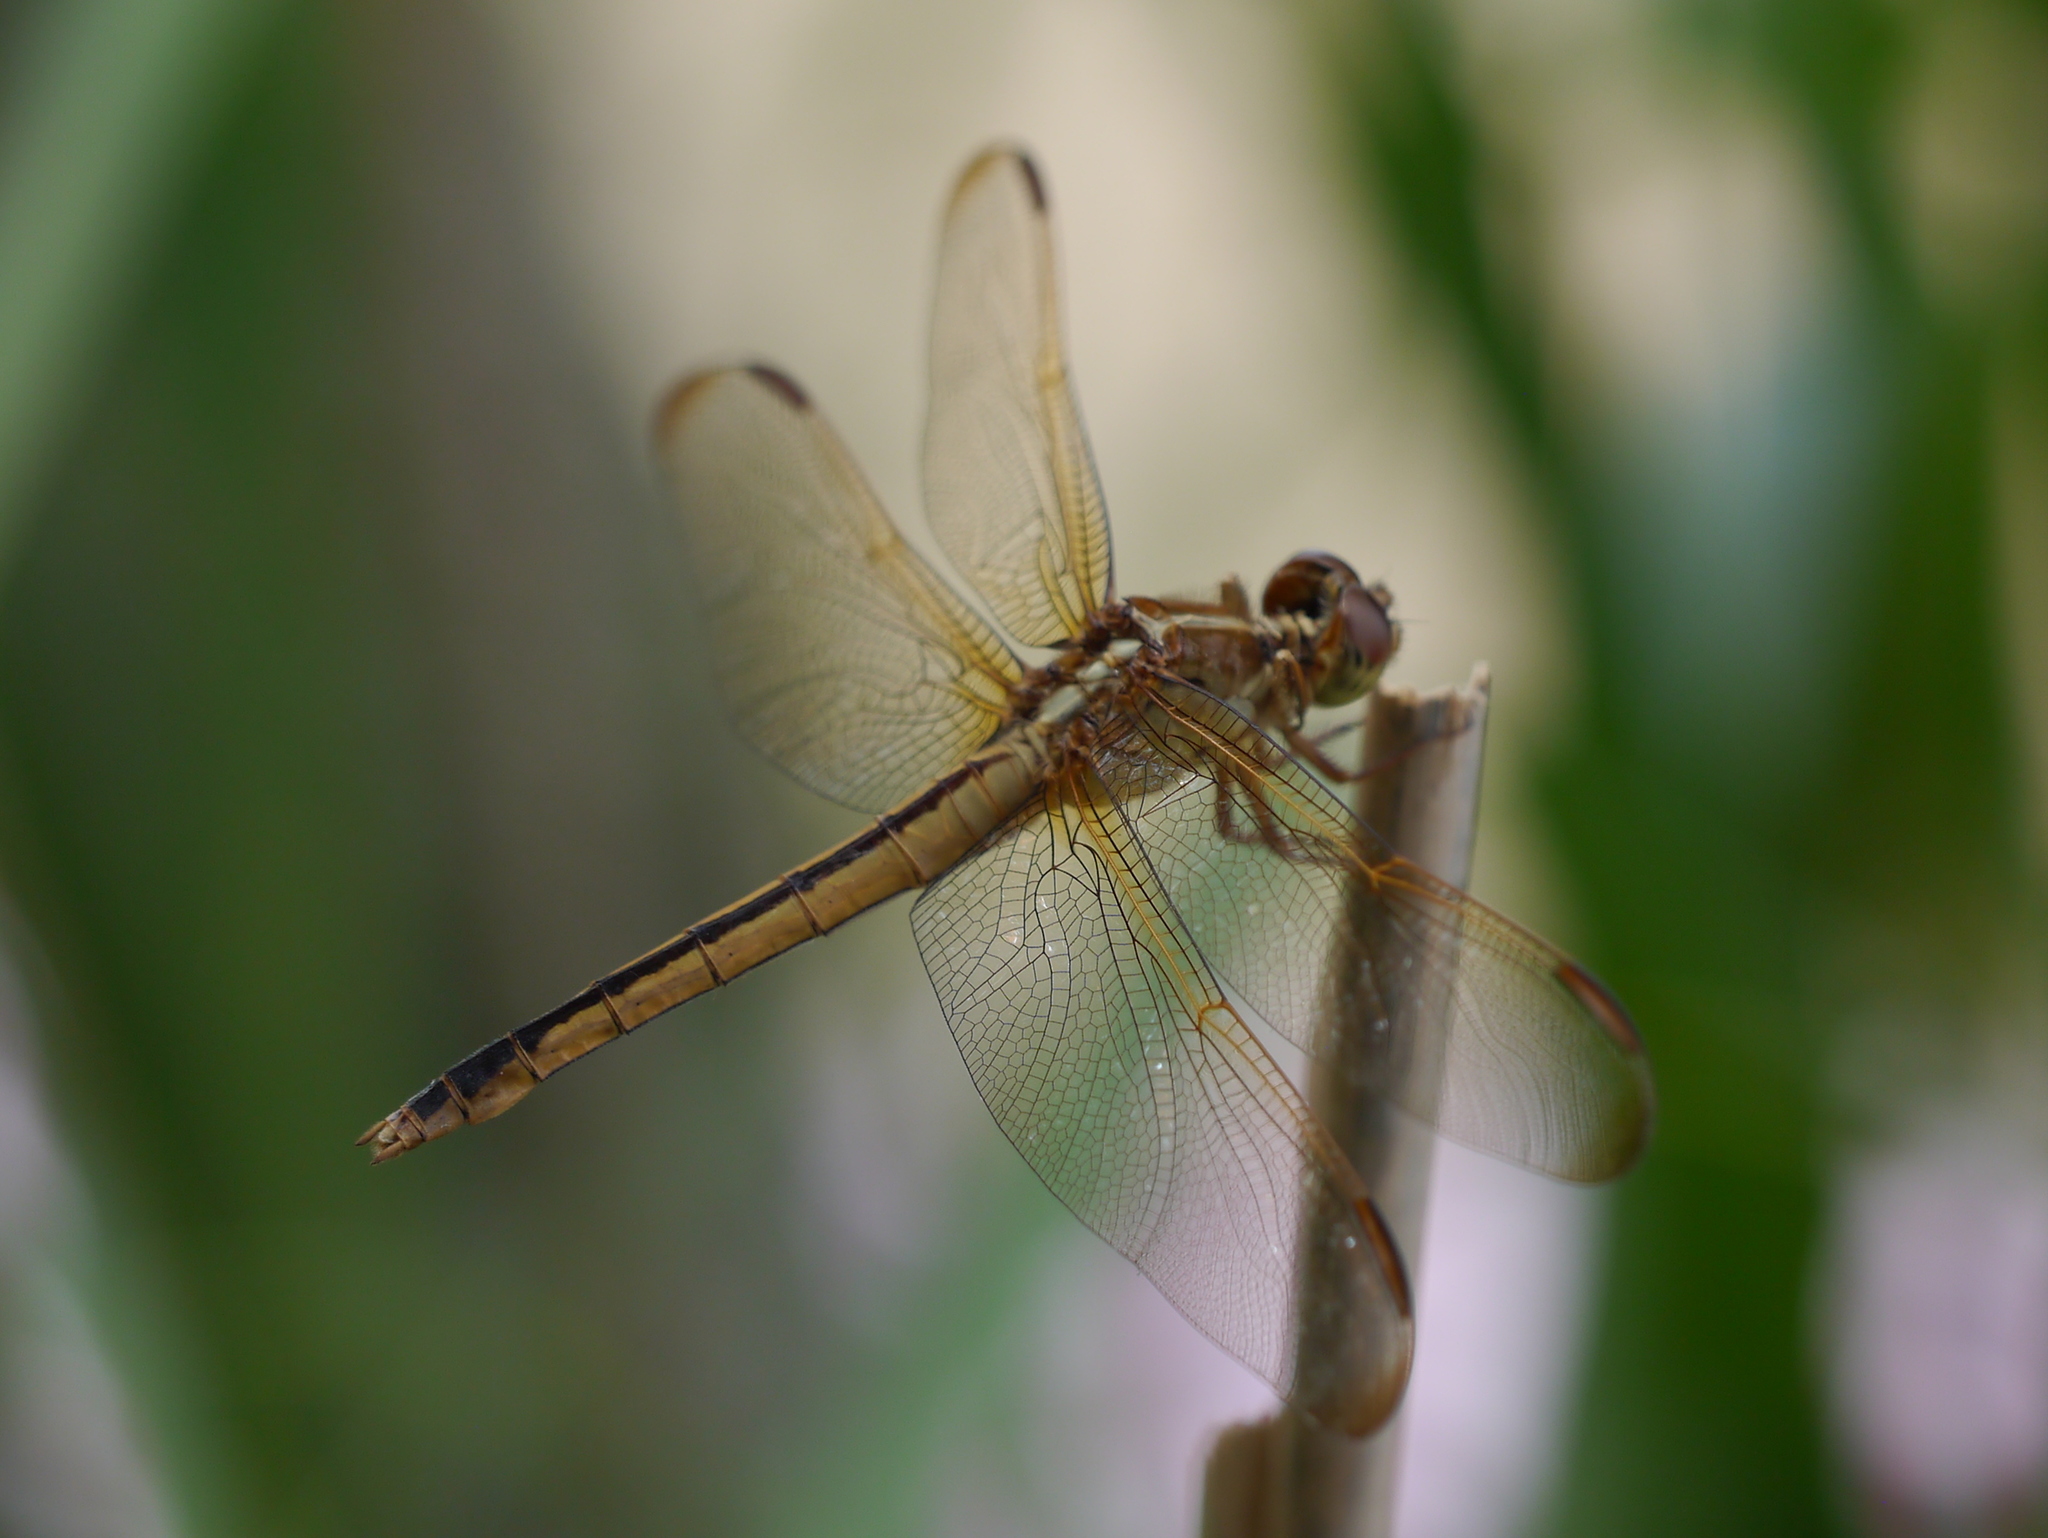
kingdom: Animalia
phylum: Arthropoda
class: Insecta
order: Odonata
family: Libellulidae
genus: Libellula
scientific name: Libellula needhami
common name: Needham's skimmer
